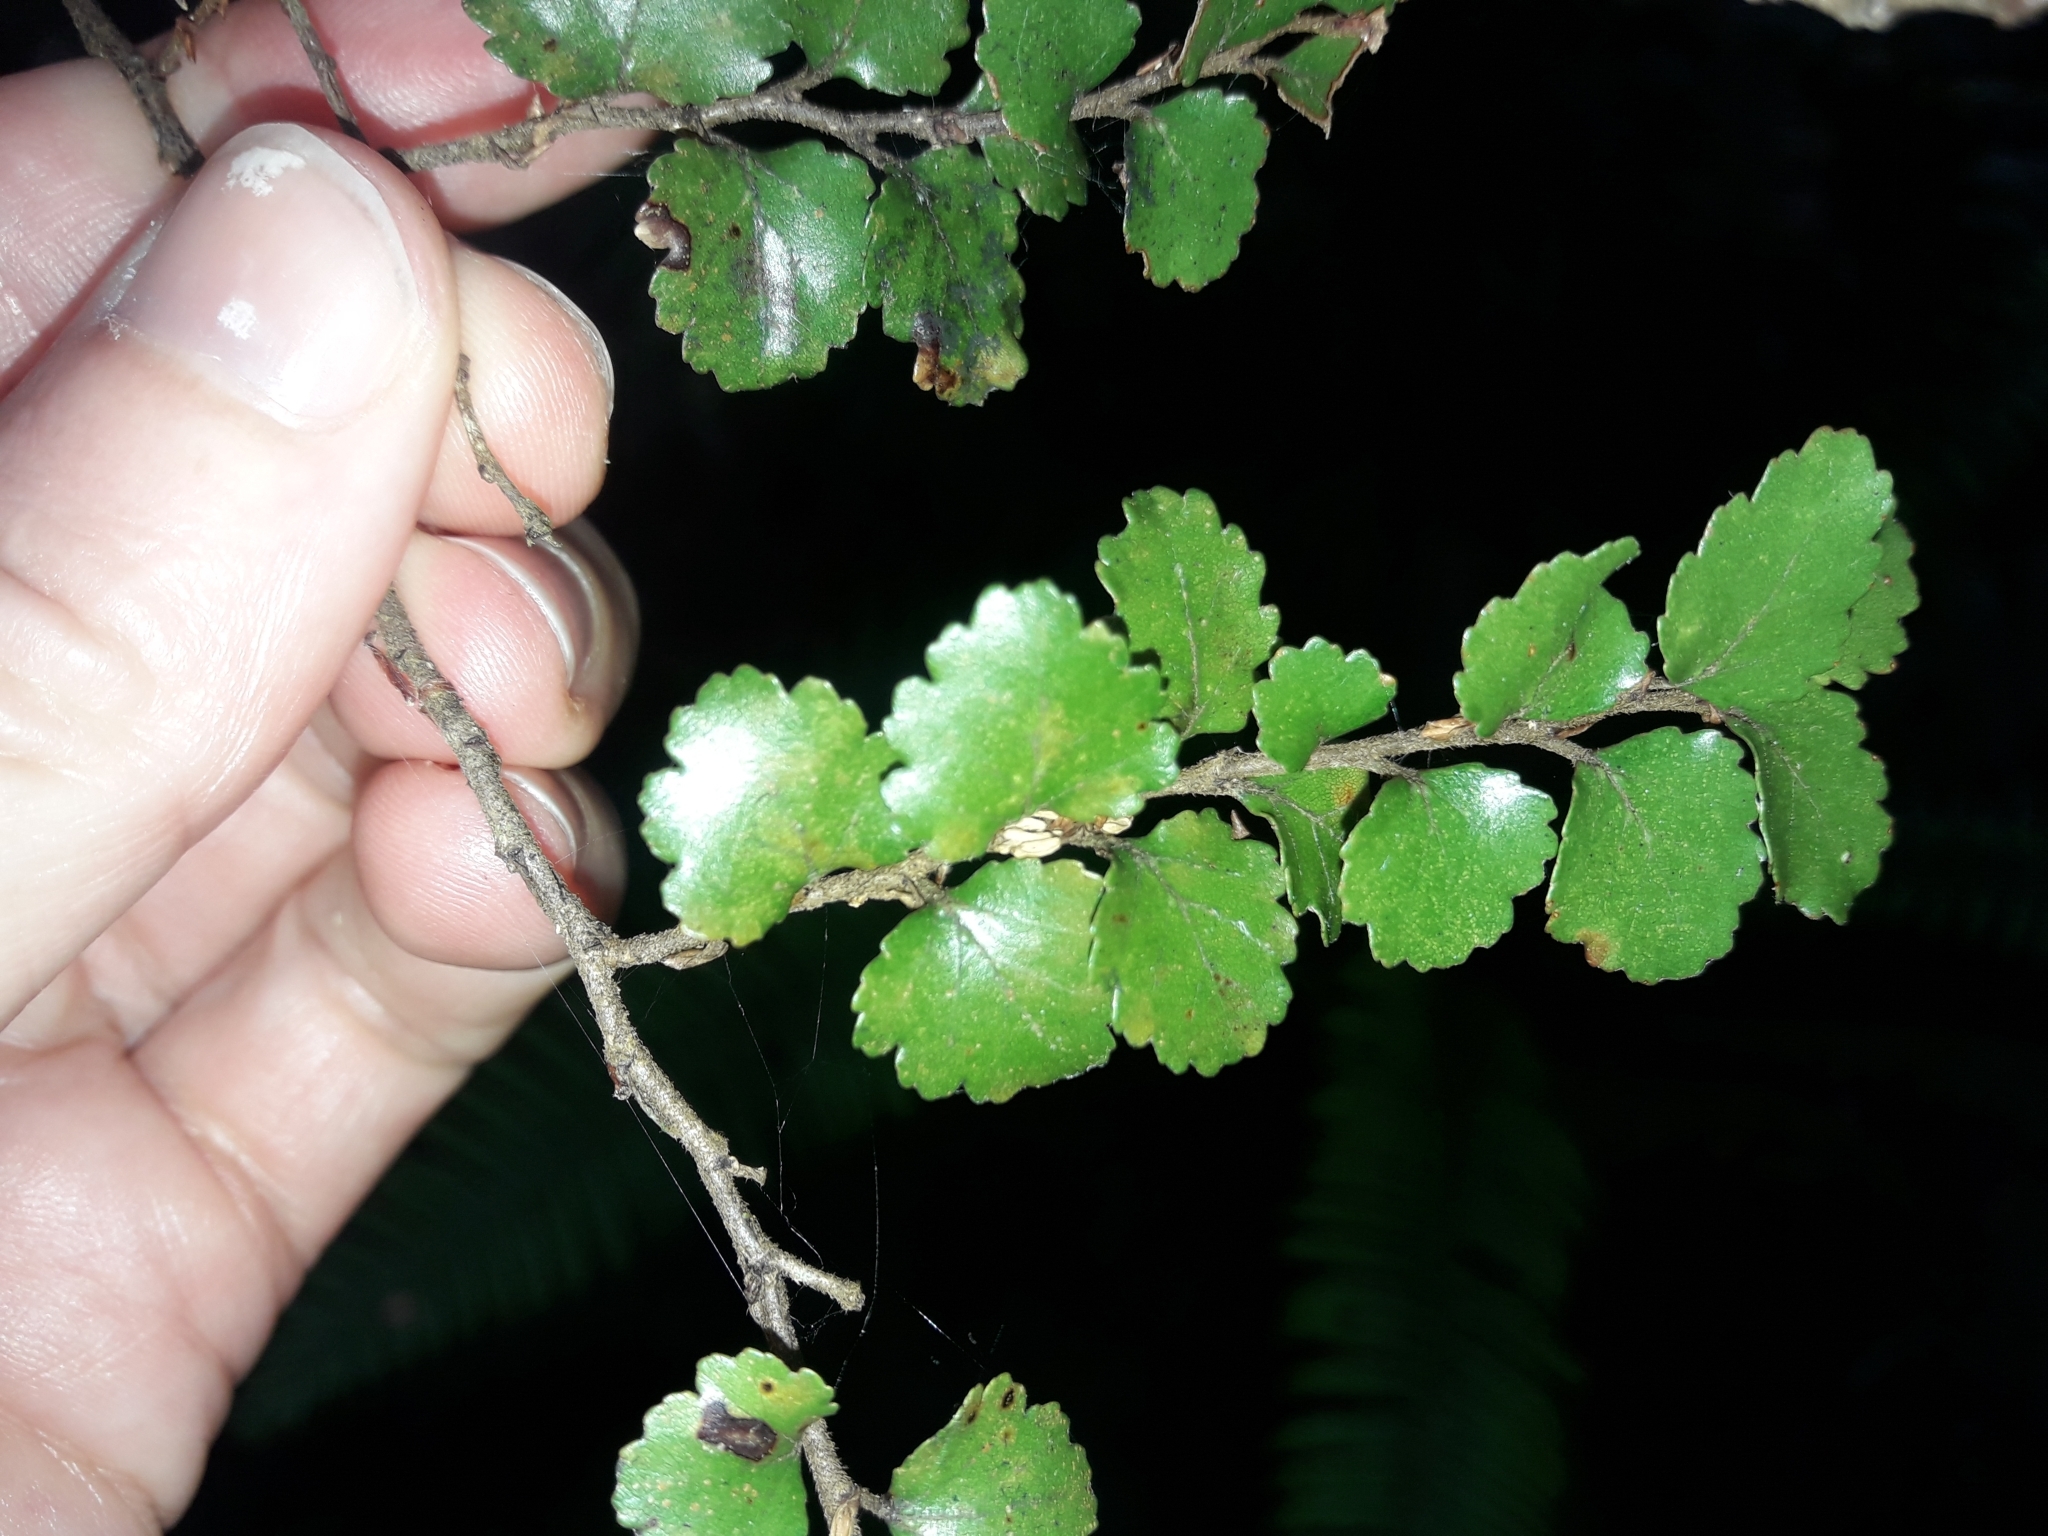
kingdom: Plantae
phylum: Tracheophyta
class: Magnoliopsida
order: Fagales
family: Nothofagaceae
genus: Nothofagus
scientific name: Nothofagus menziesii
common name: Silver beech
